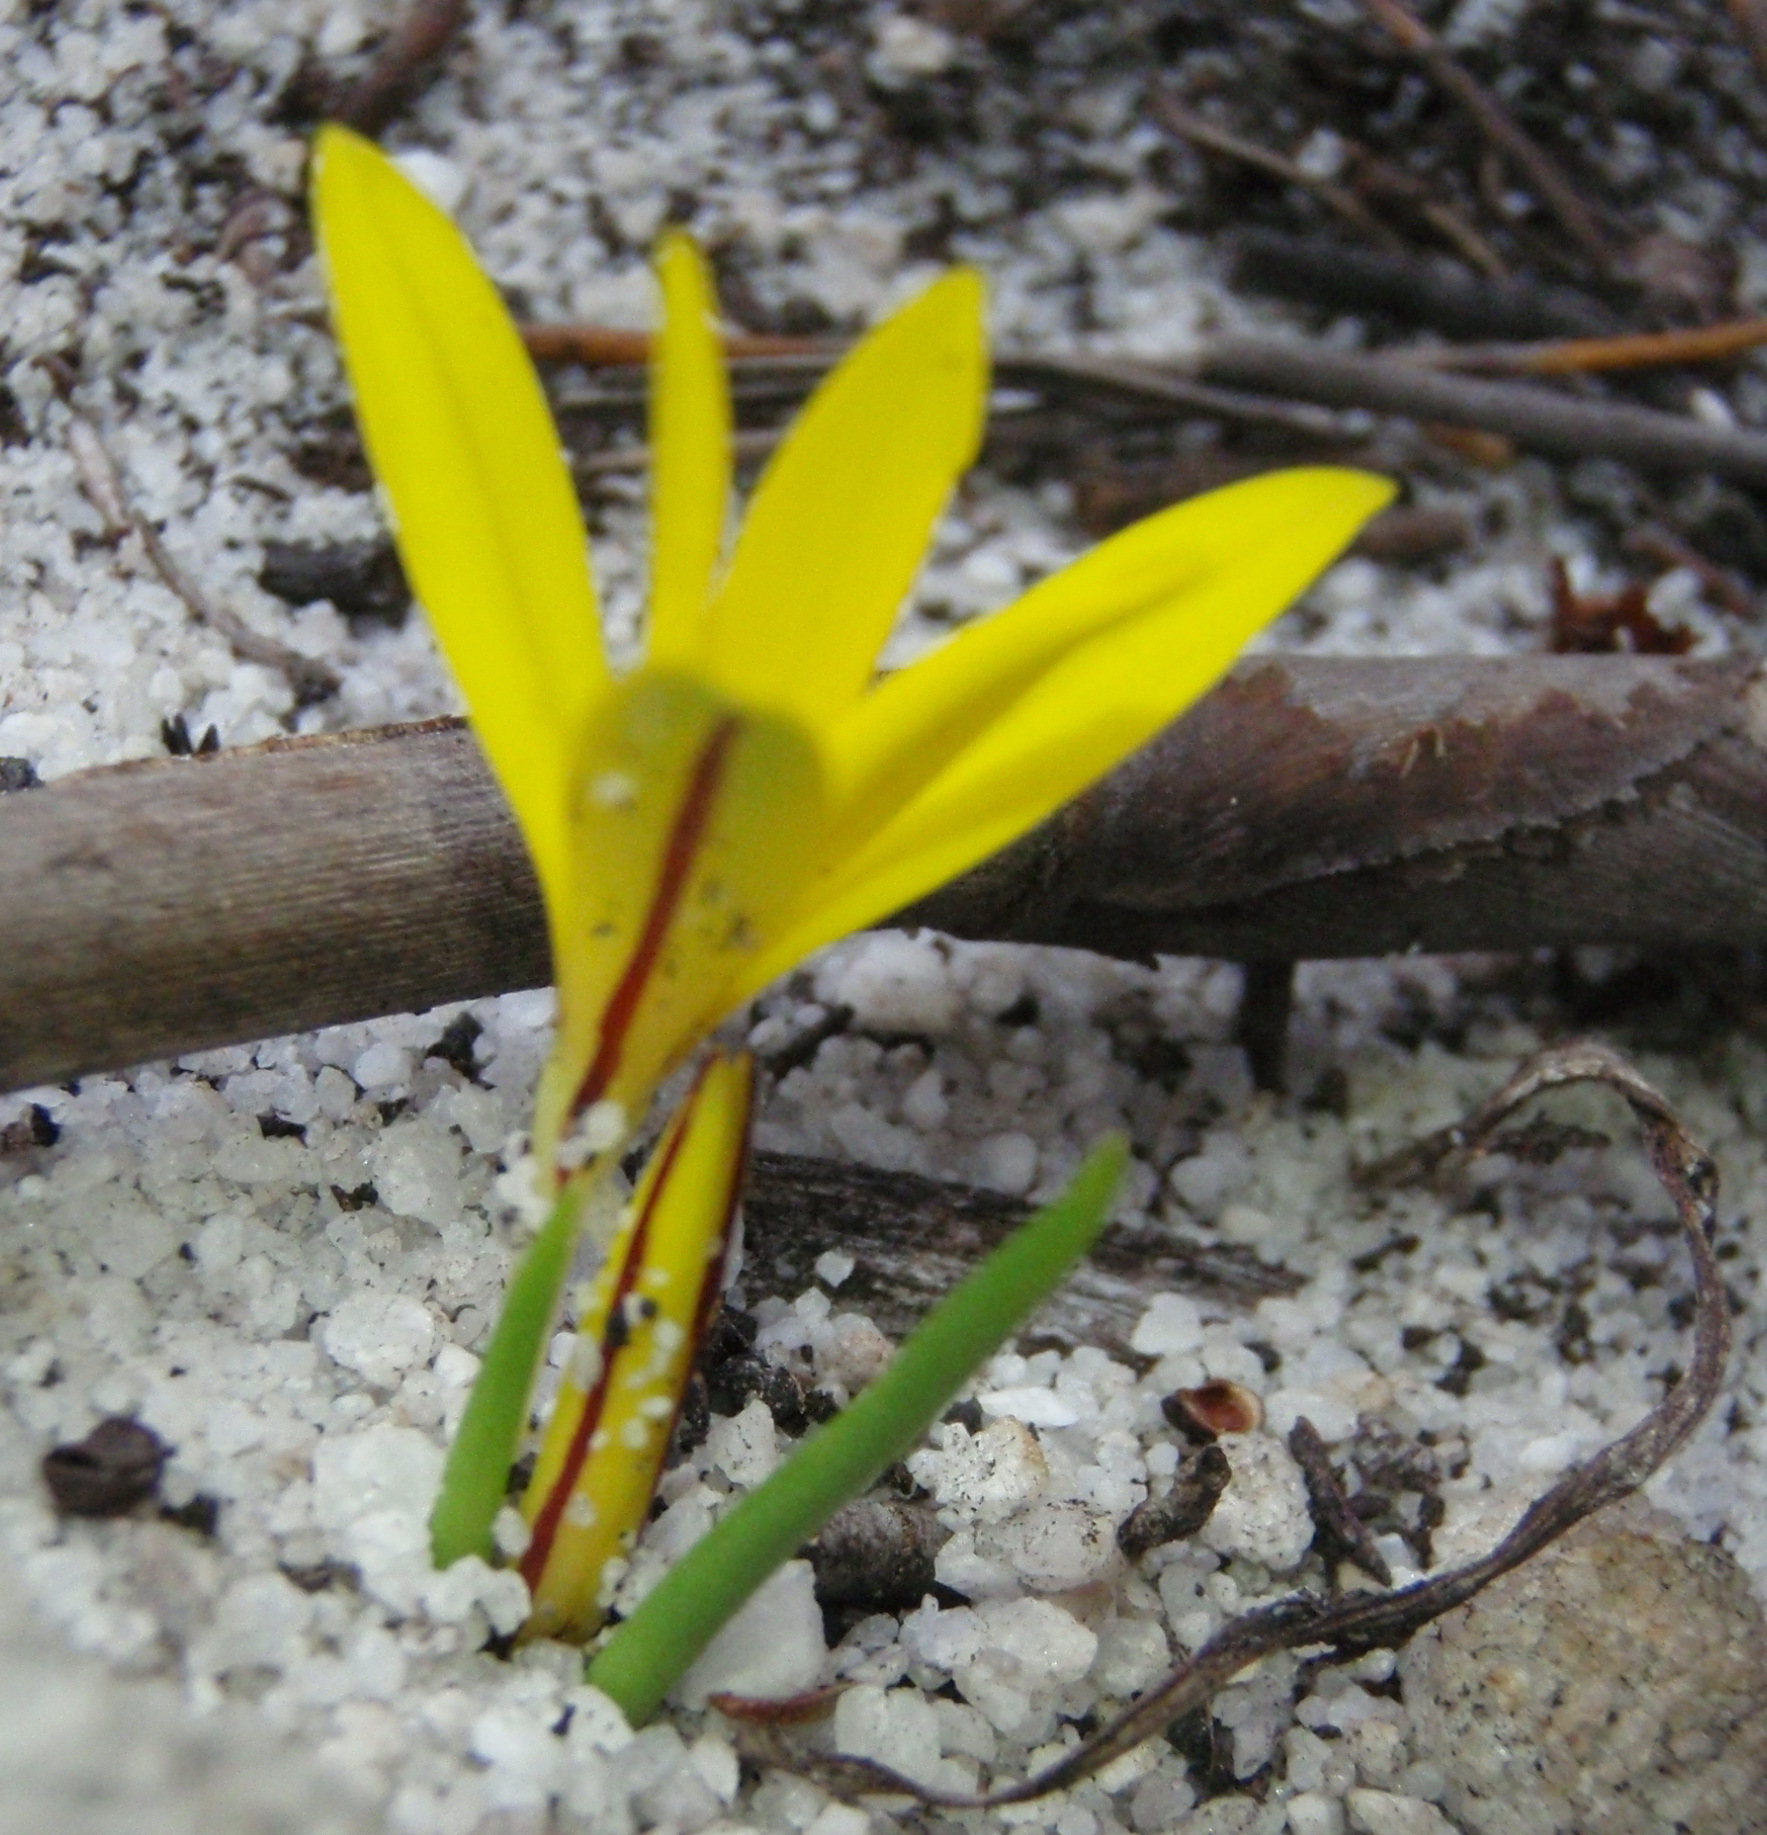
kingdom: Plantae
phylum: Tracheophyta
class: Liliopsida
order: Asparagales
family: Hypoxidaceae
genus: Pauridia
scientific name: Pauridia monophylla
